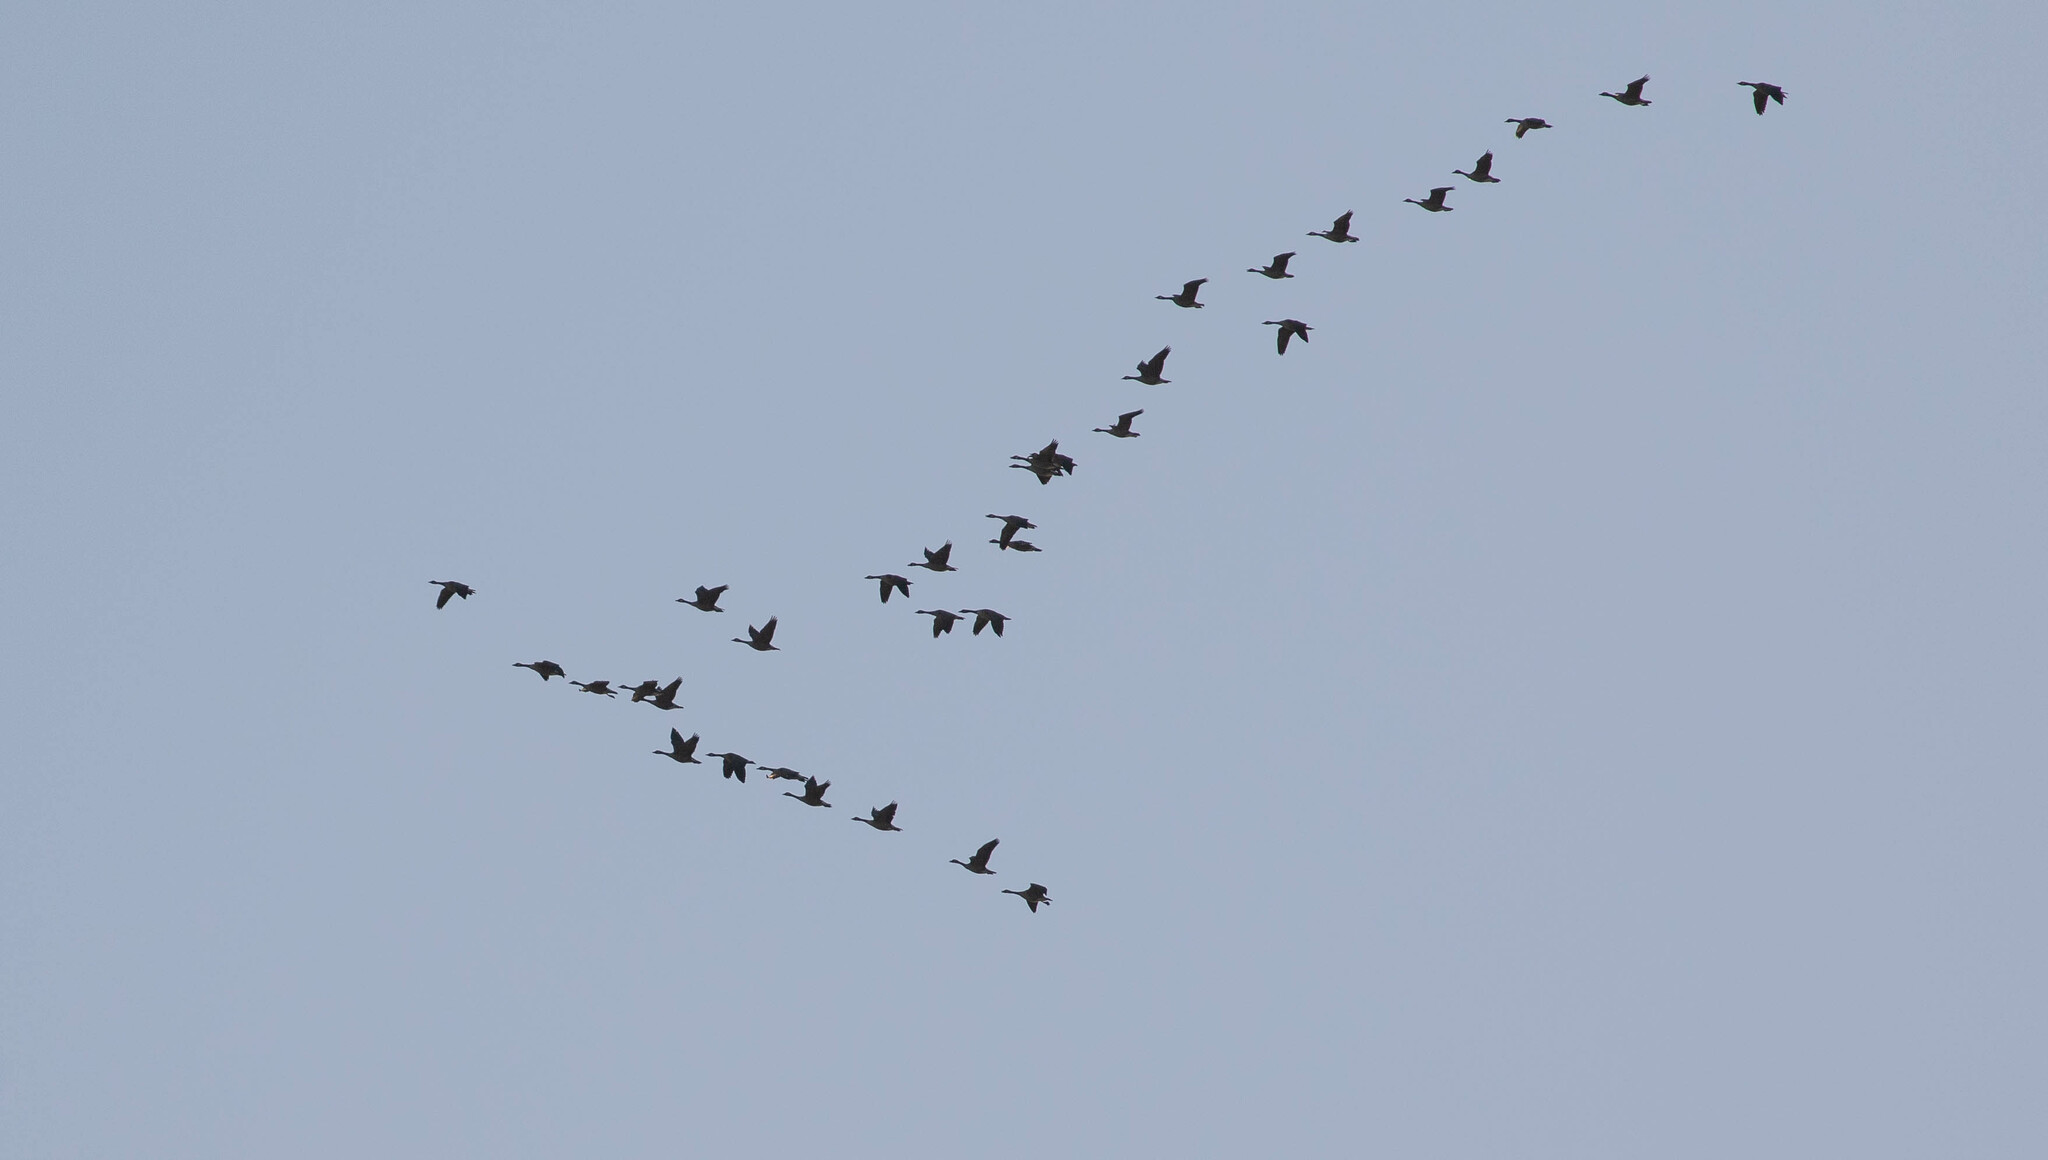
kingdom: Animalia
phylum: Chordata
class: Aves
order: Anseriformes
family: Anatidae
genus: Branta
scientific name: Branta canadensis
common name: Canada goose
